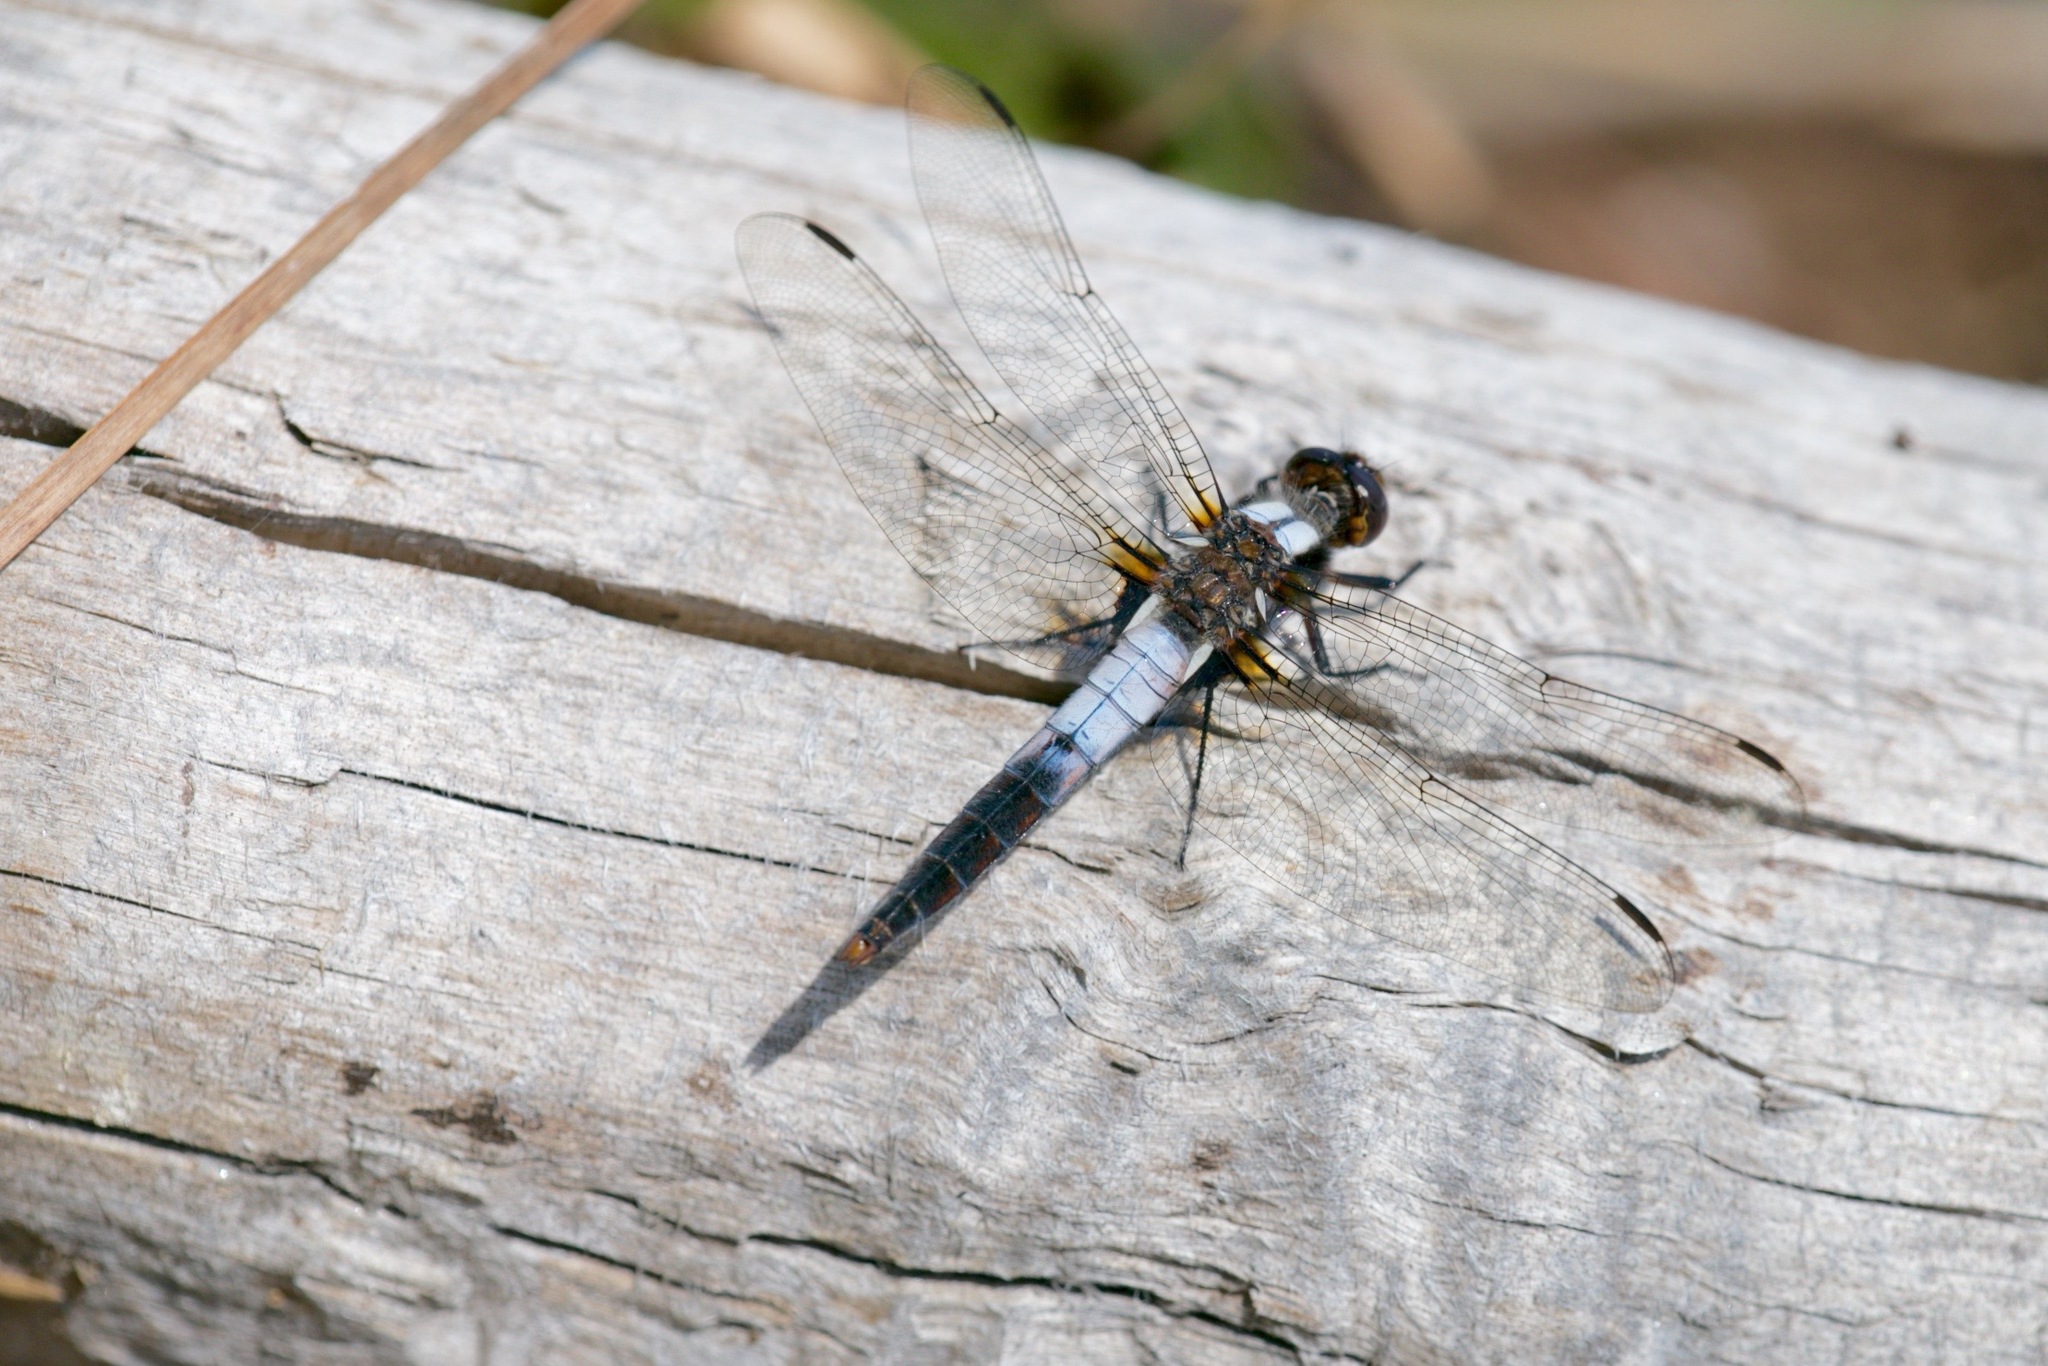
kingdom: Animalia
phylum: Arthropoda
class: Insecta
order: Odonata
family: Libellulidae
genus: Ladona
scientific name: Ladona julia
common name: Chalk-fronted corporal
